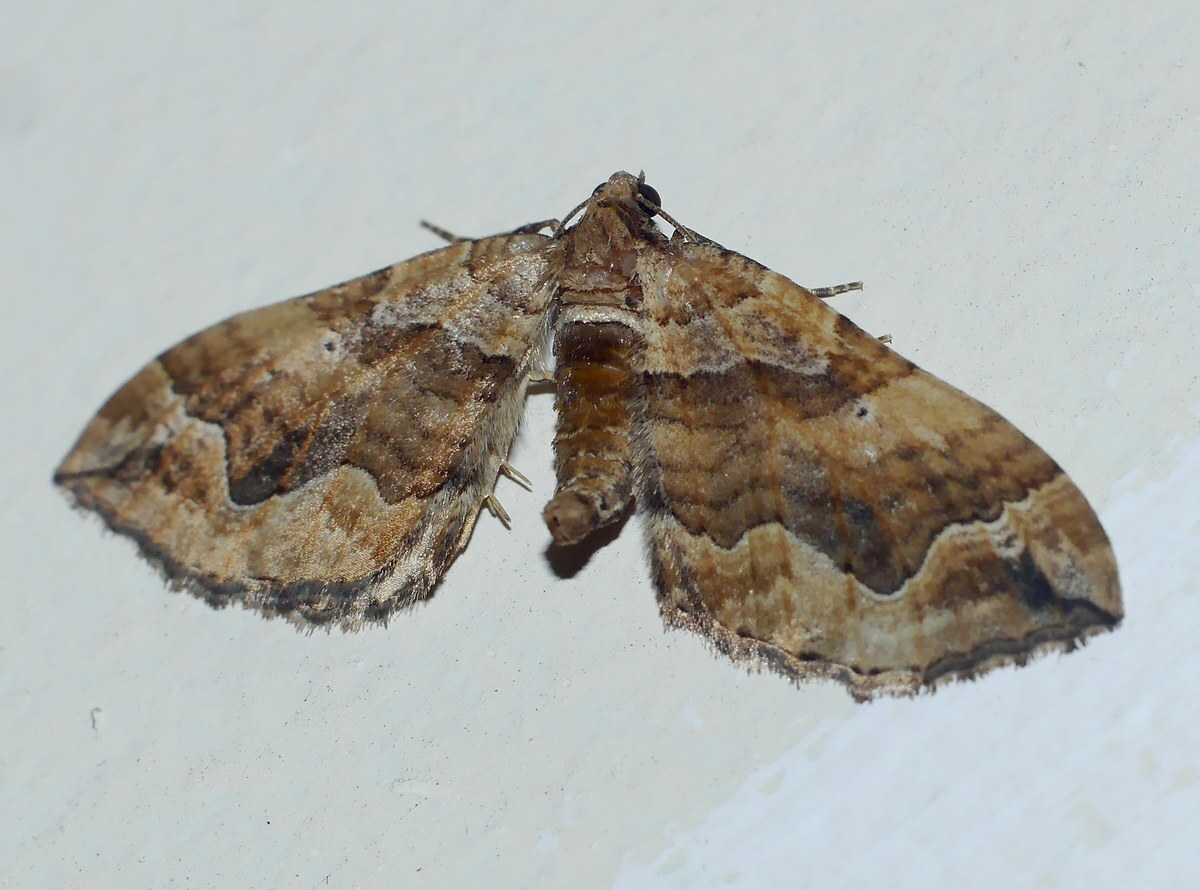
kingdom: Animalia
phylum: Arthropoda
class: Insecta
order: Lepidoptera
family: Geometridae
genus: Pelurga
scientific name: Pelurga comitata
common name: Dark spinach
